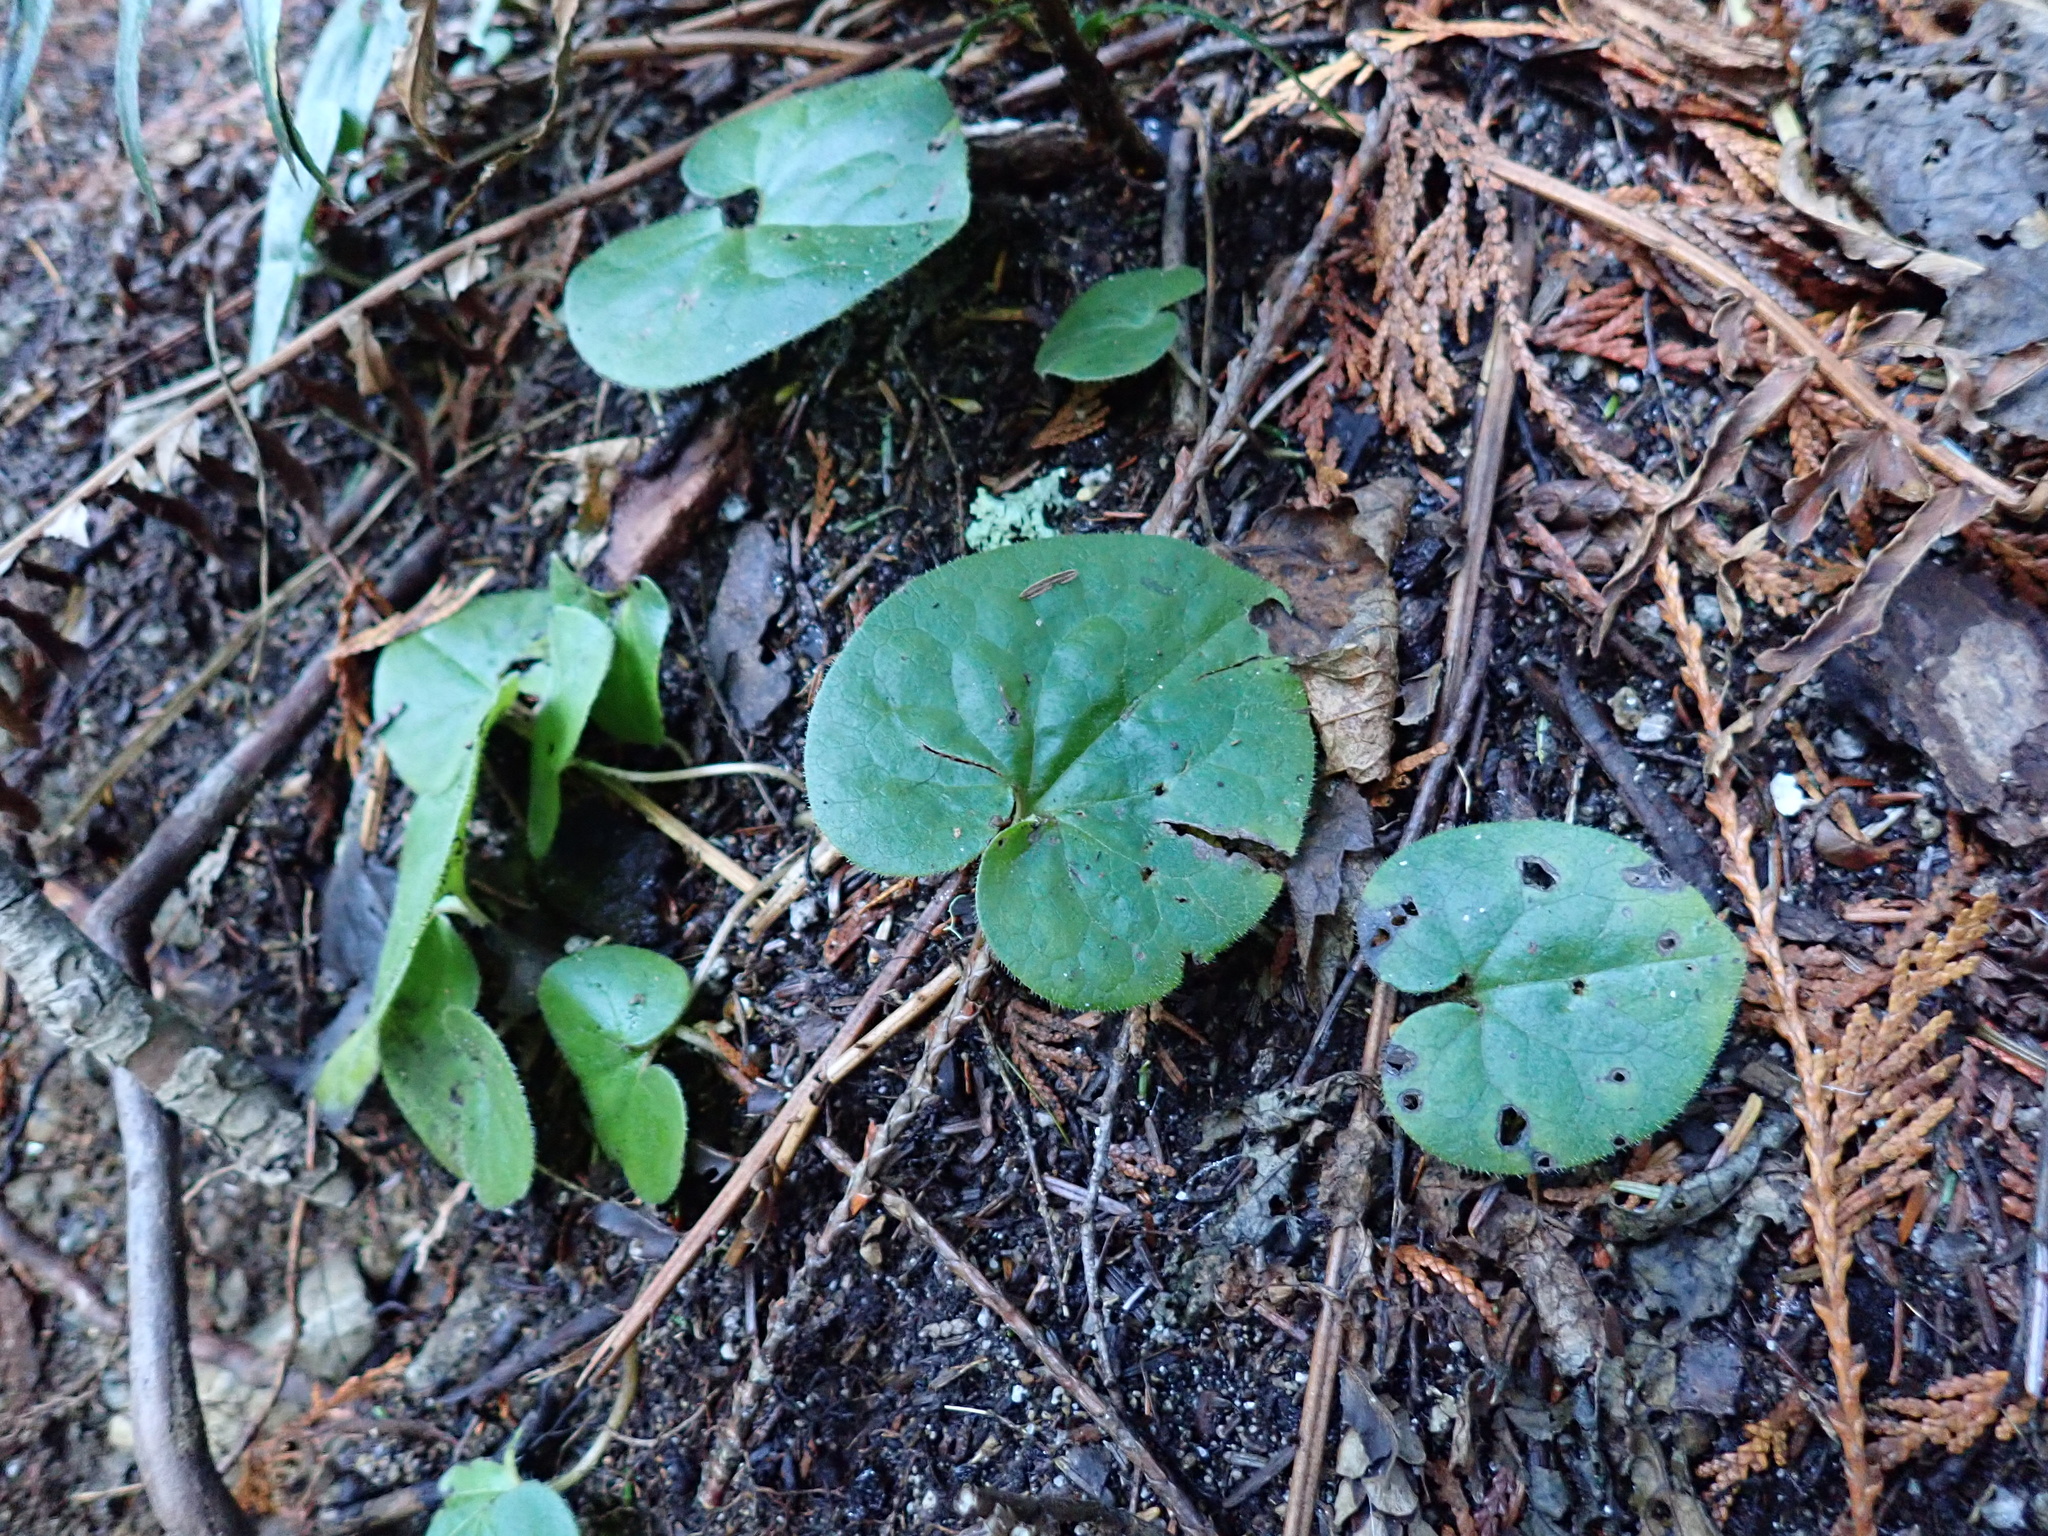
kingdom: Plantae
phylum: Tracheophyta
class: Magnoliopsida
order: Piperales
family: Aristolochiaceae
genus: Asarum
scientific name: Asarum caudatum
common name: Wild ginger
